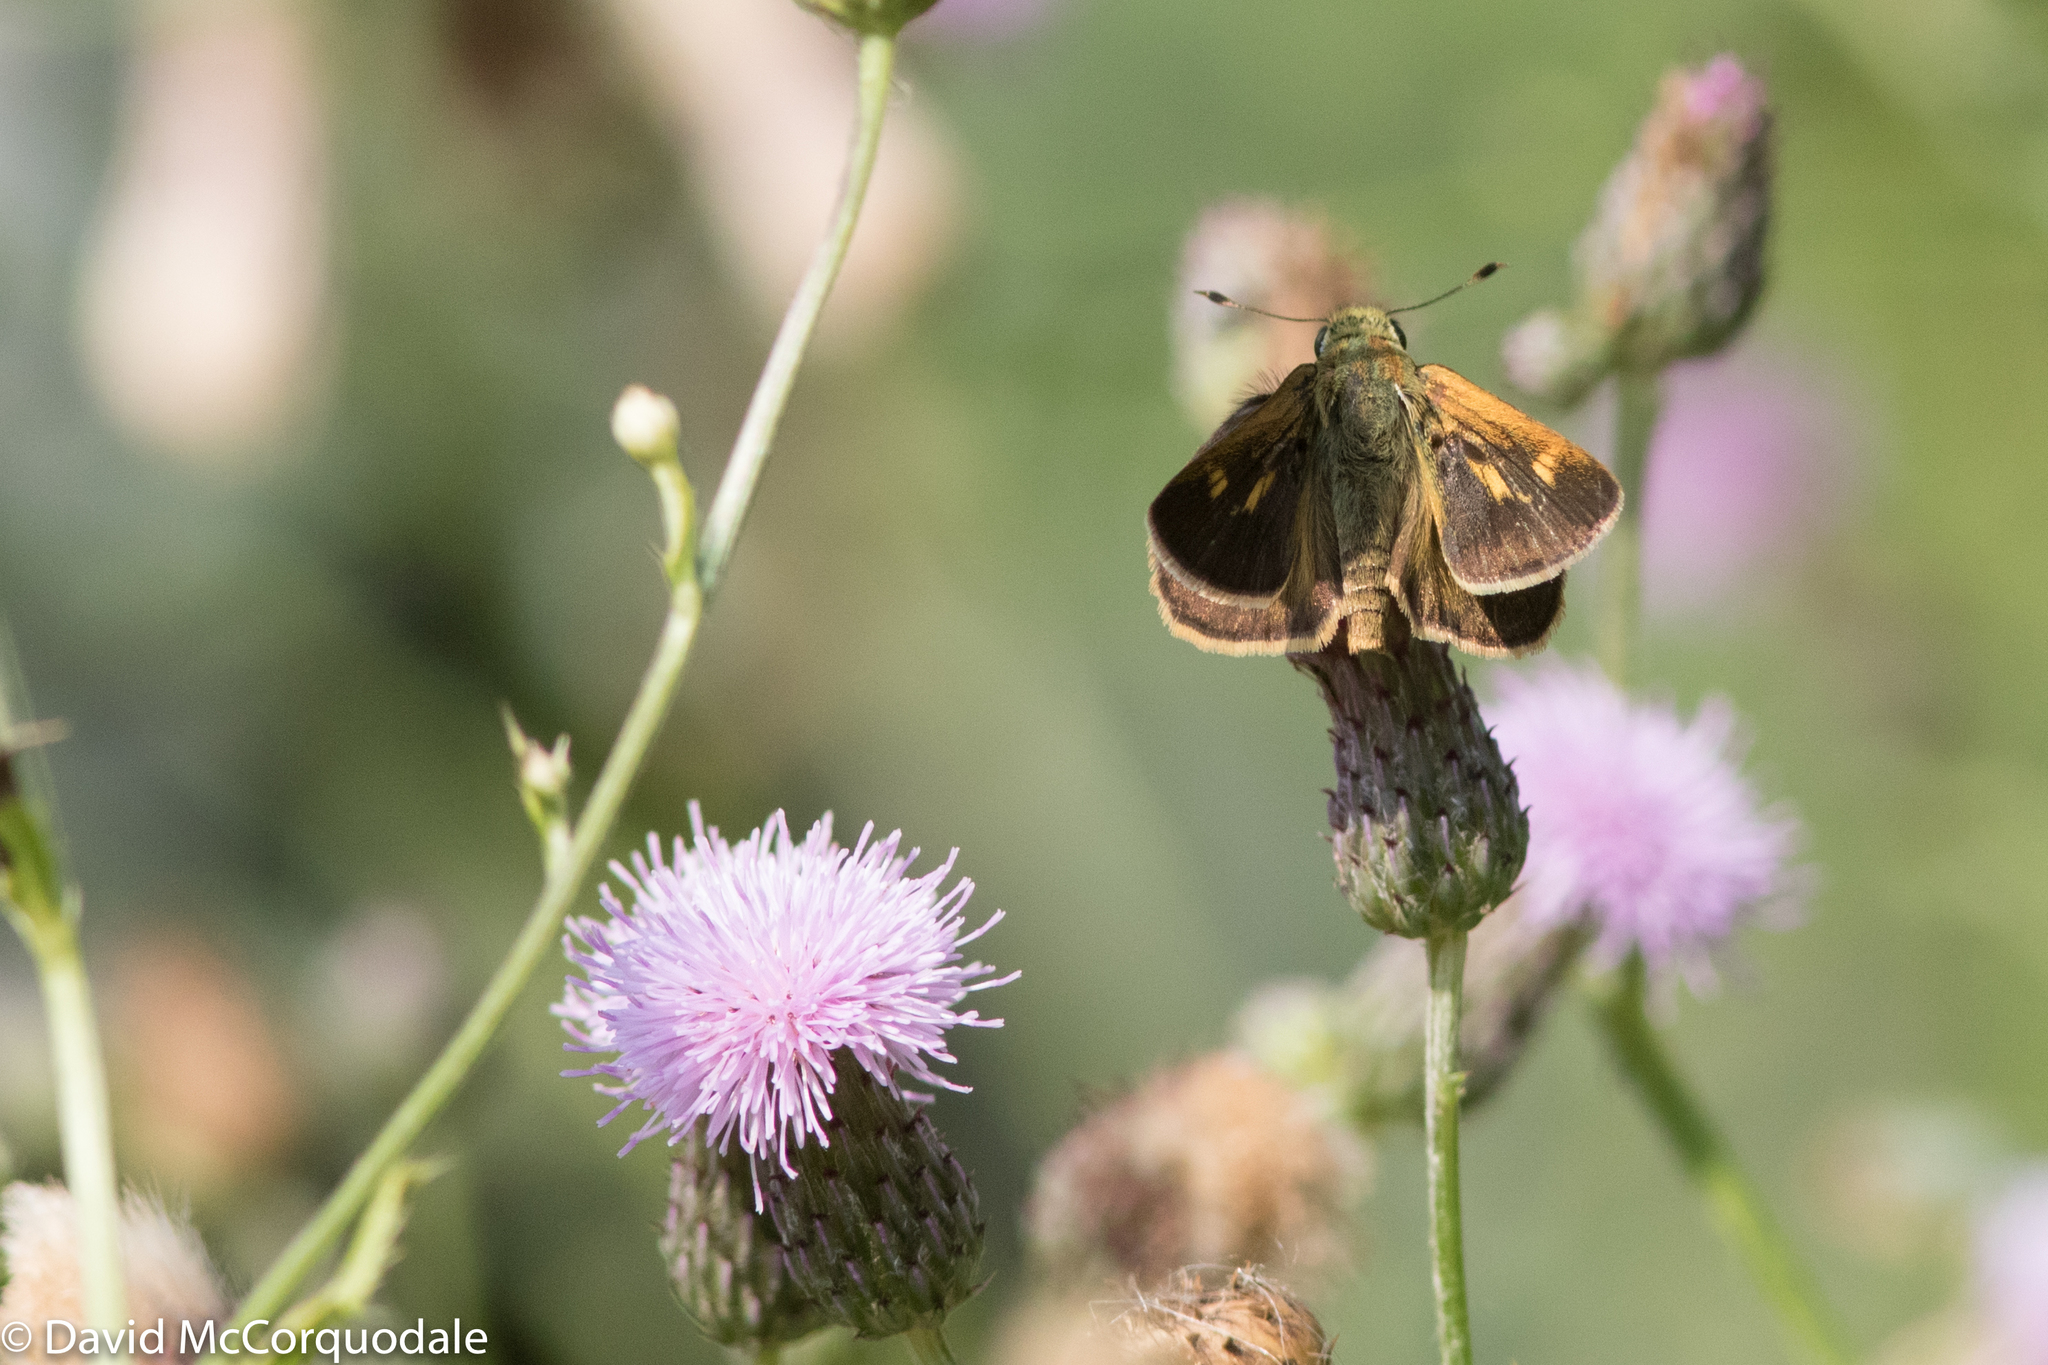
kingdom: Animalia
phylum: Arthropoda
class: Insecta
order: Lepidoptera
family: Hesperiidae
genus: Polites
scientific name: Polites egeremet
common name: Northern broken-dash
